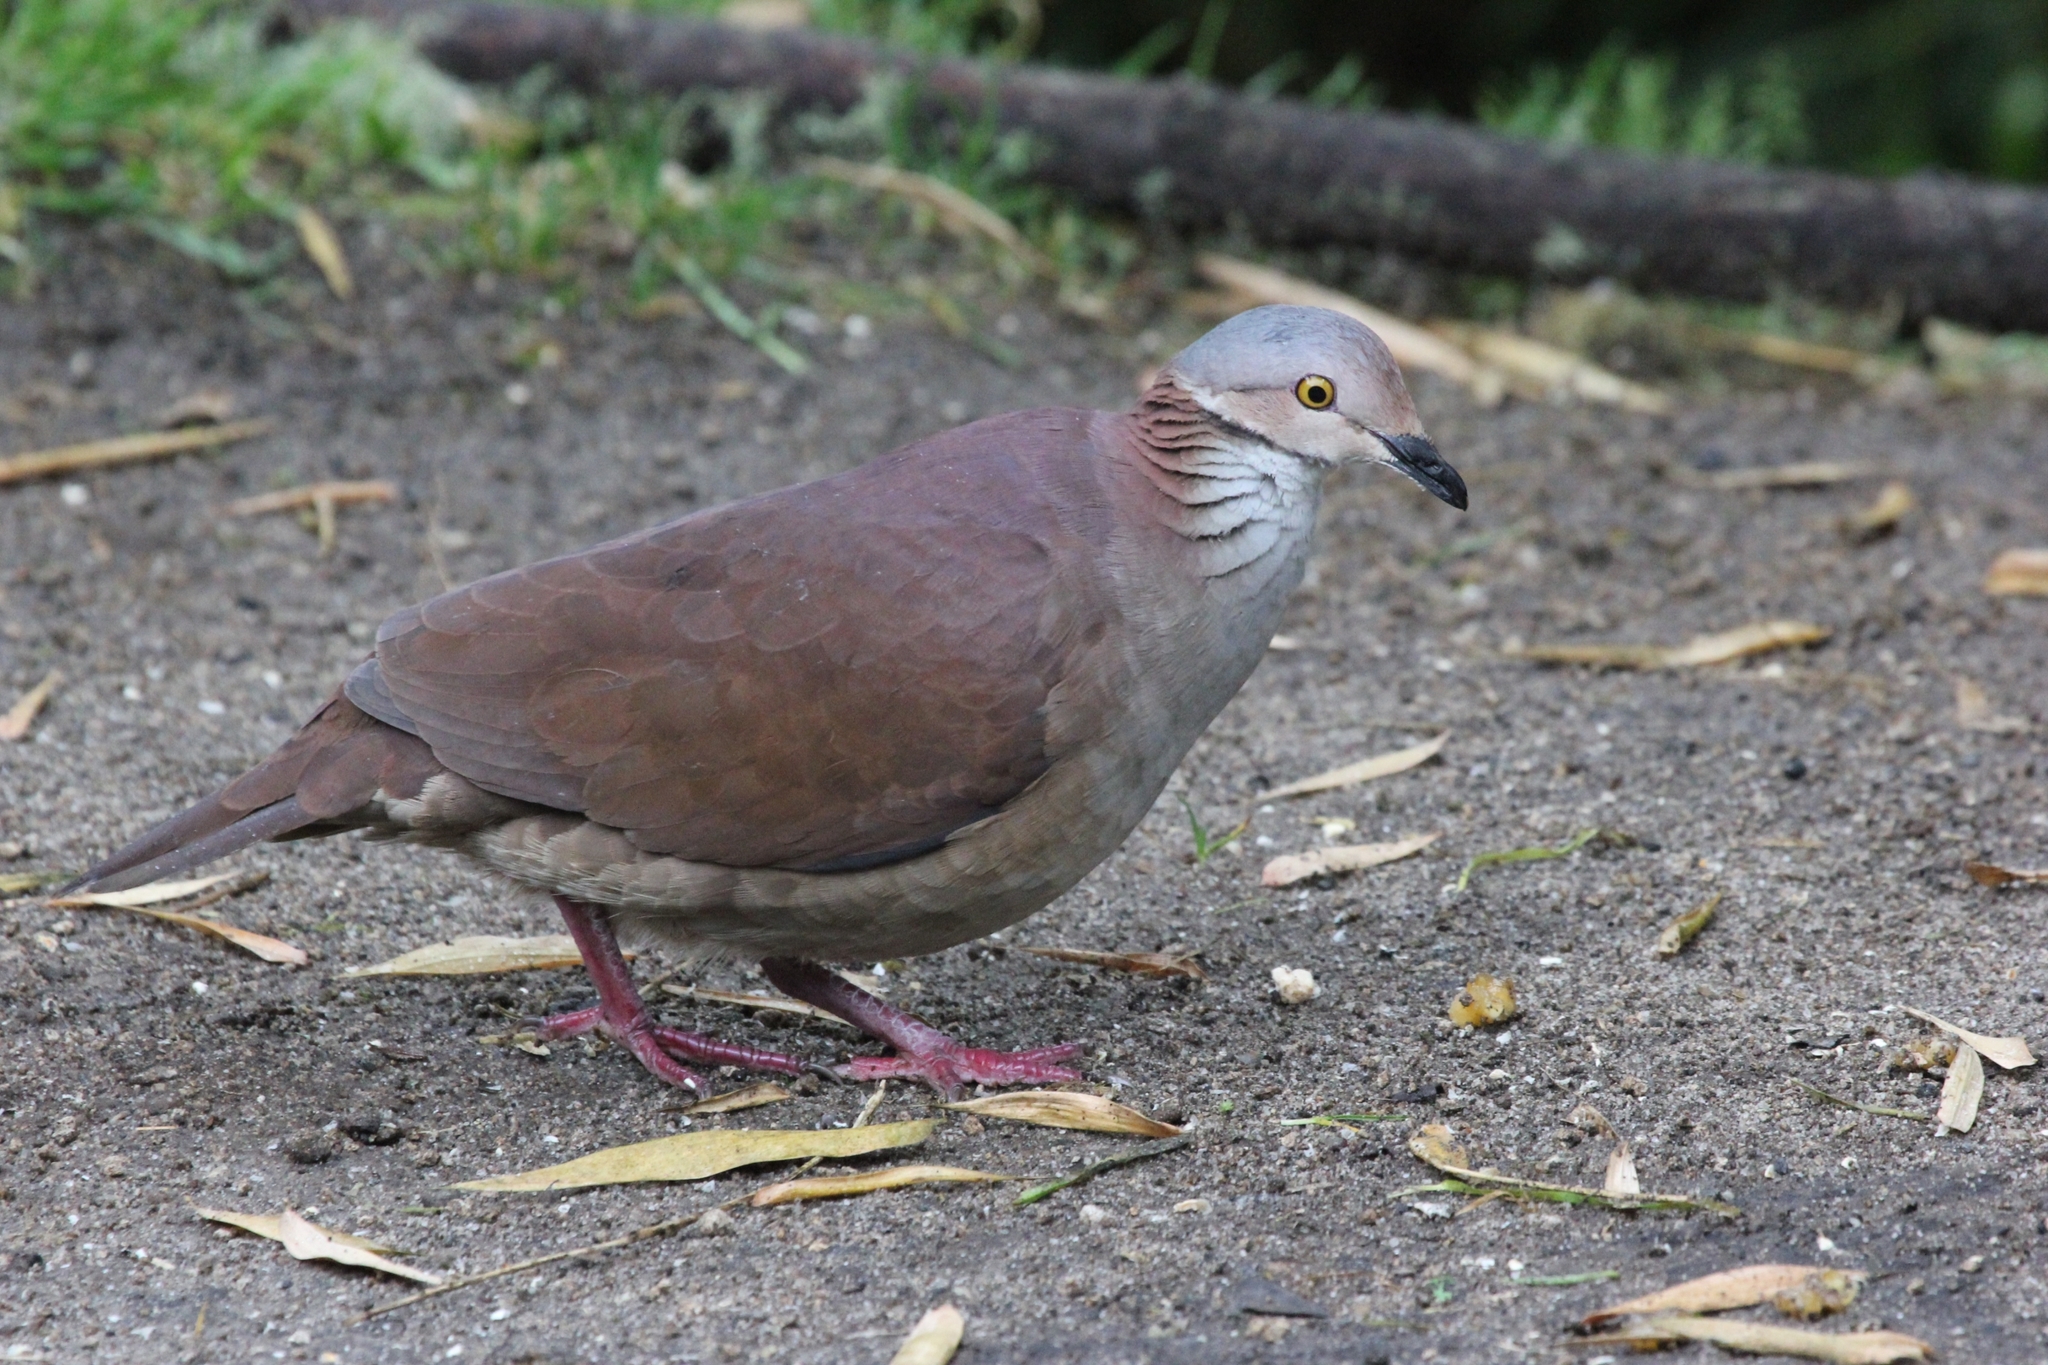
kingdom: Animalia
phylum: Chordata
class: Aves
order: Columbiformes
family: Columbidae
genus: Zentrygon
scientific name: Zentrygon frenata
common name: White-throated quail-dove
